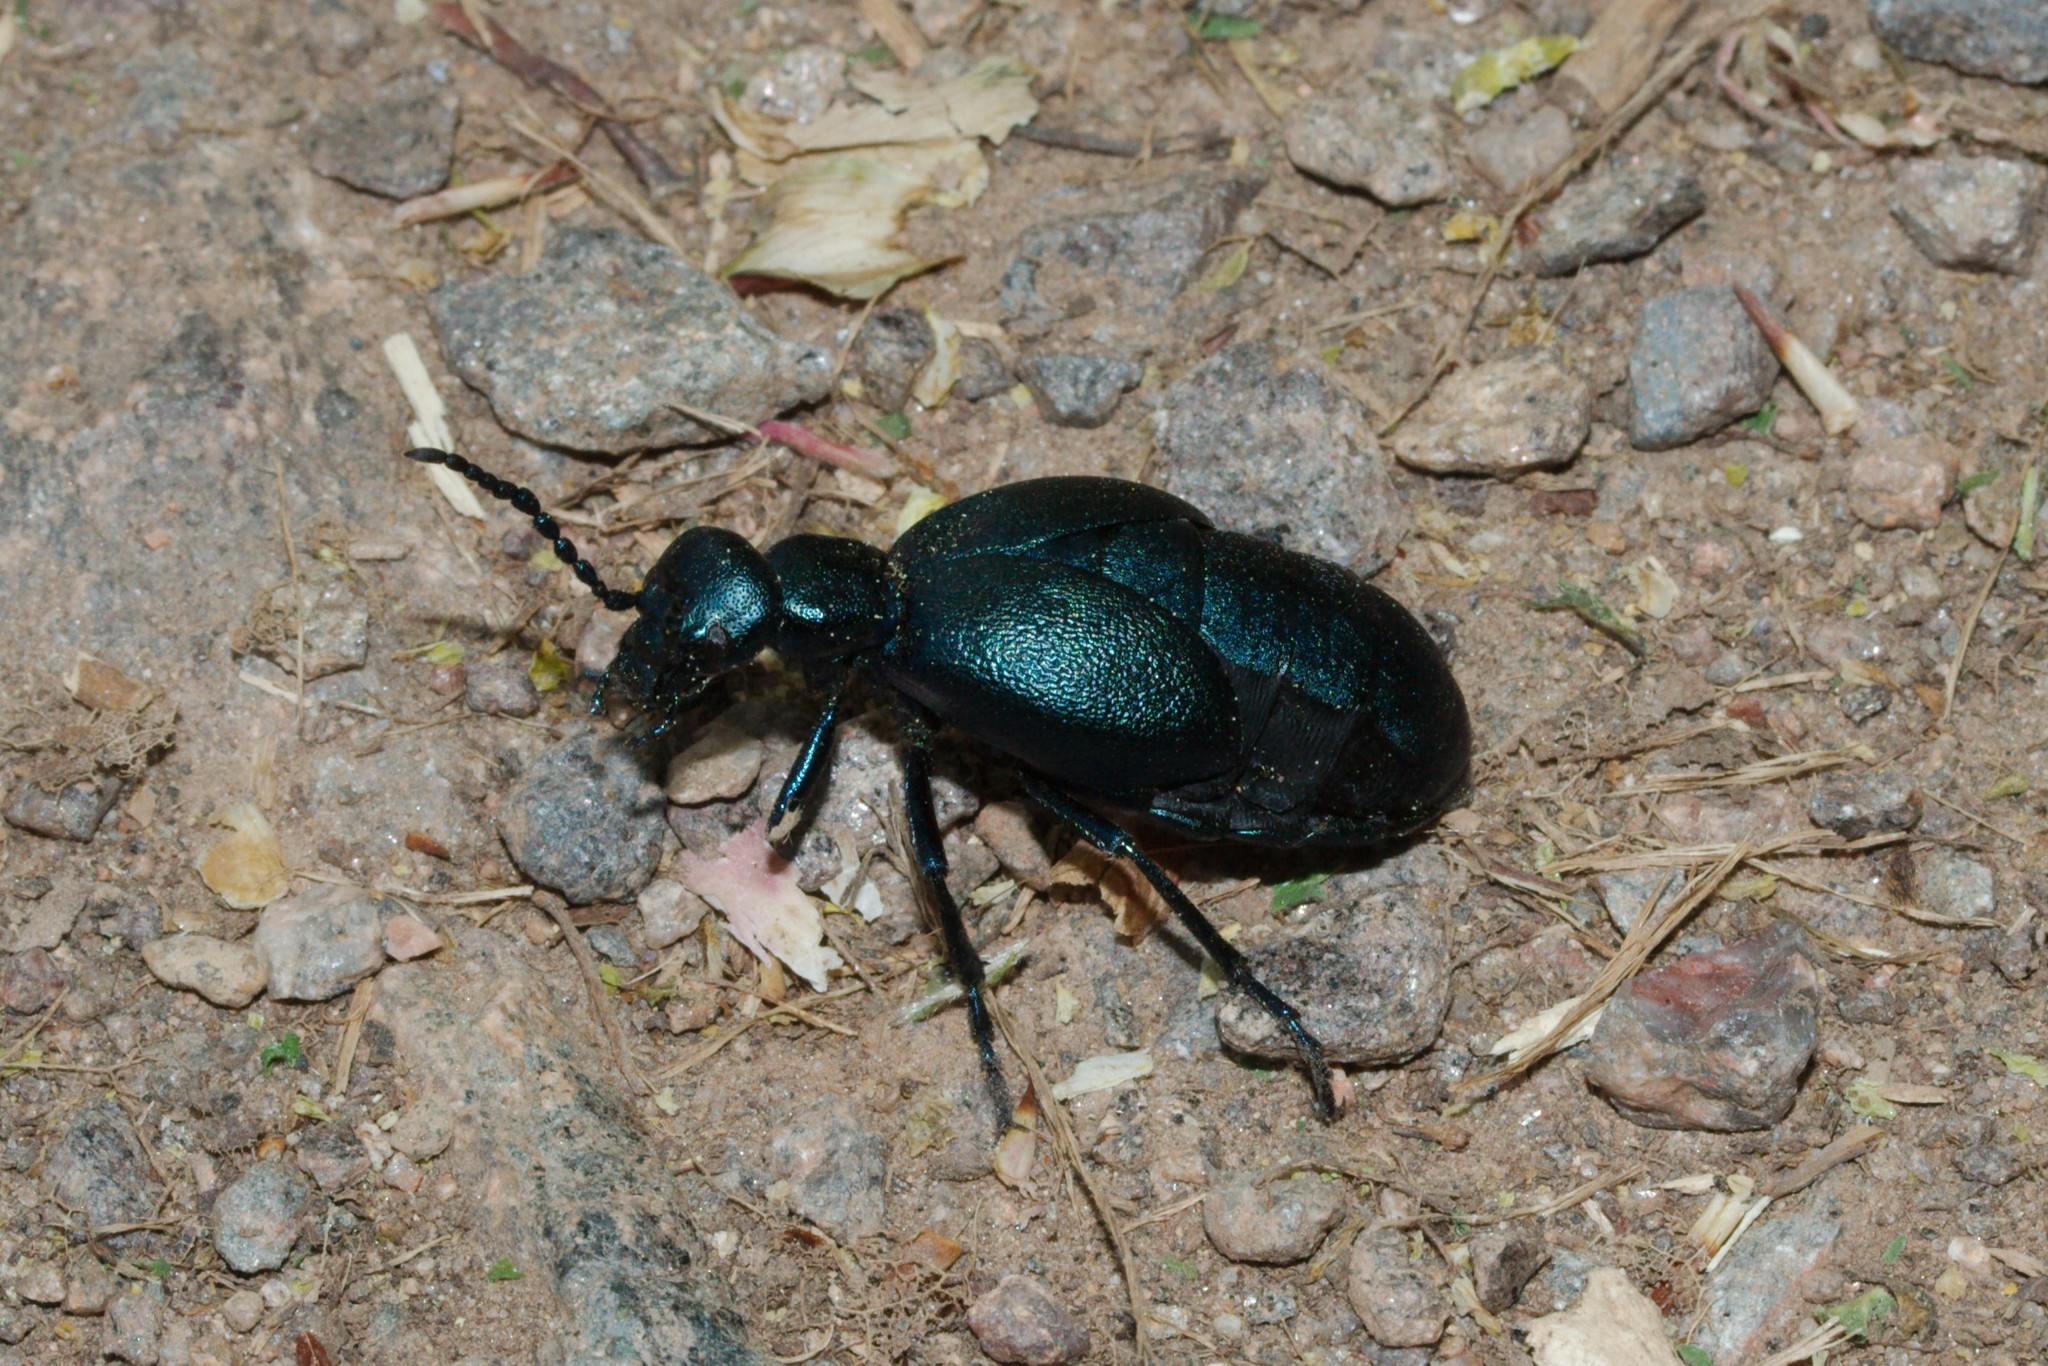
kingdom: Animalia
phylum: Arthropoda
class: Insecta
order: Coleoptera
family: Meloidae
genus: Meloe
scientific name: Meloe violaceus
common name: Violet oil-beetle
